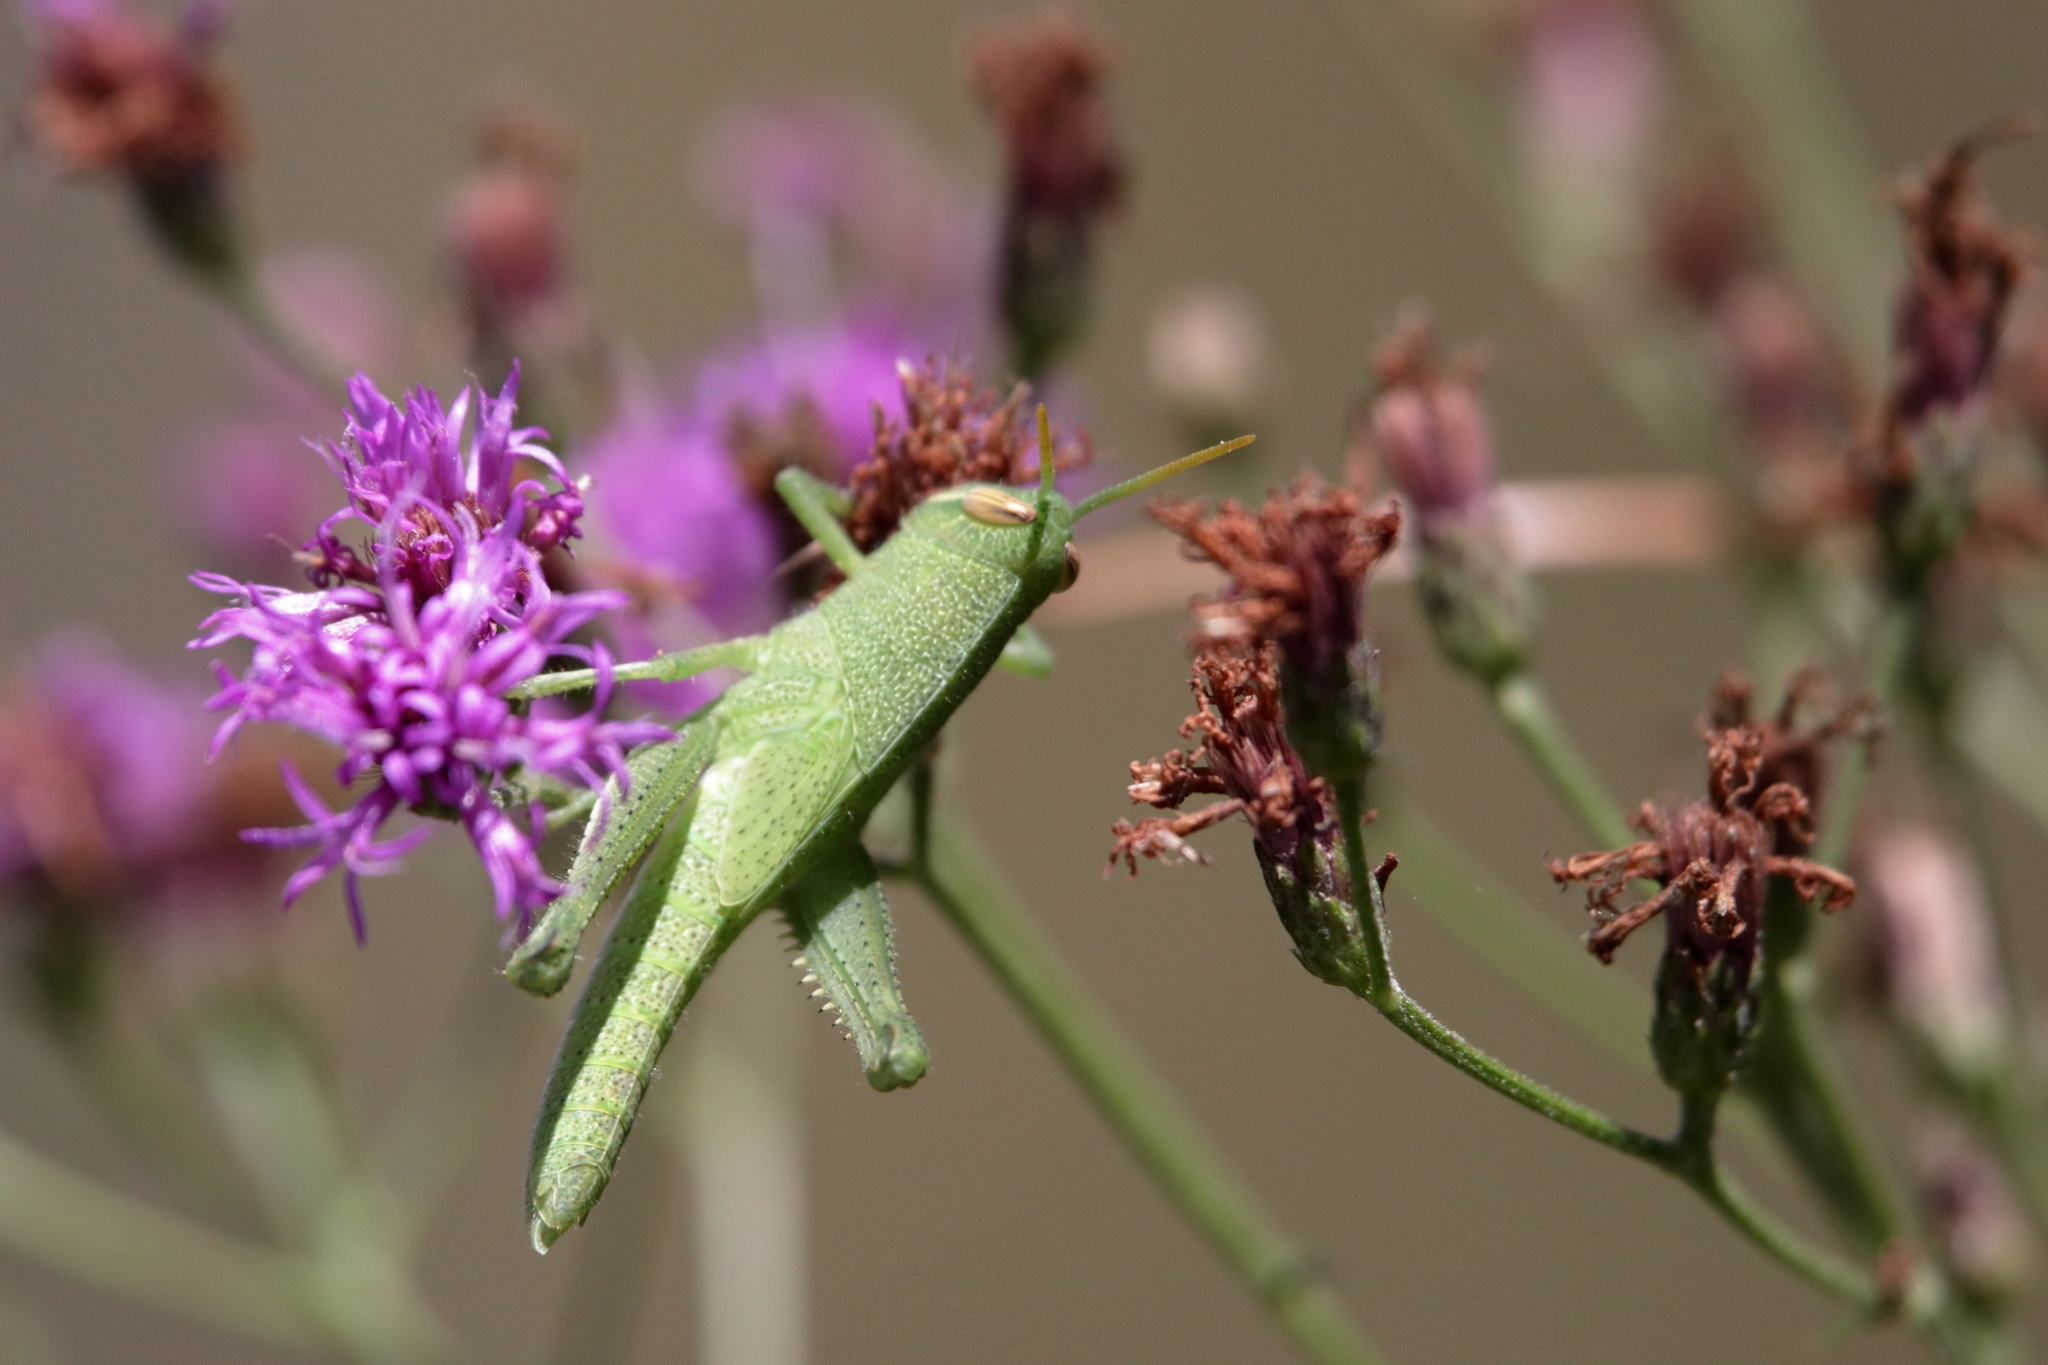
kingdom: Animalia
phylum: Arthropoda
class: Insecta
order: Orthoptera
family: Acrididae
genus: Schistocerca
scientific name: Schistocerca damnifica
